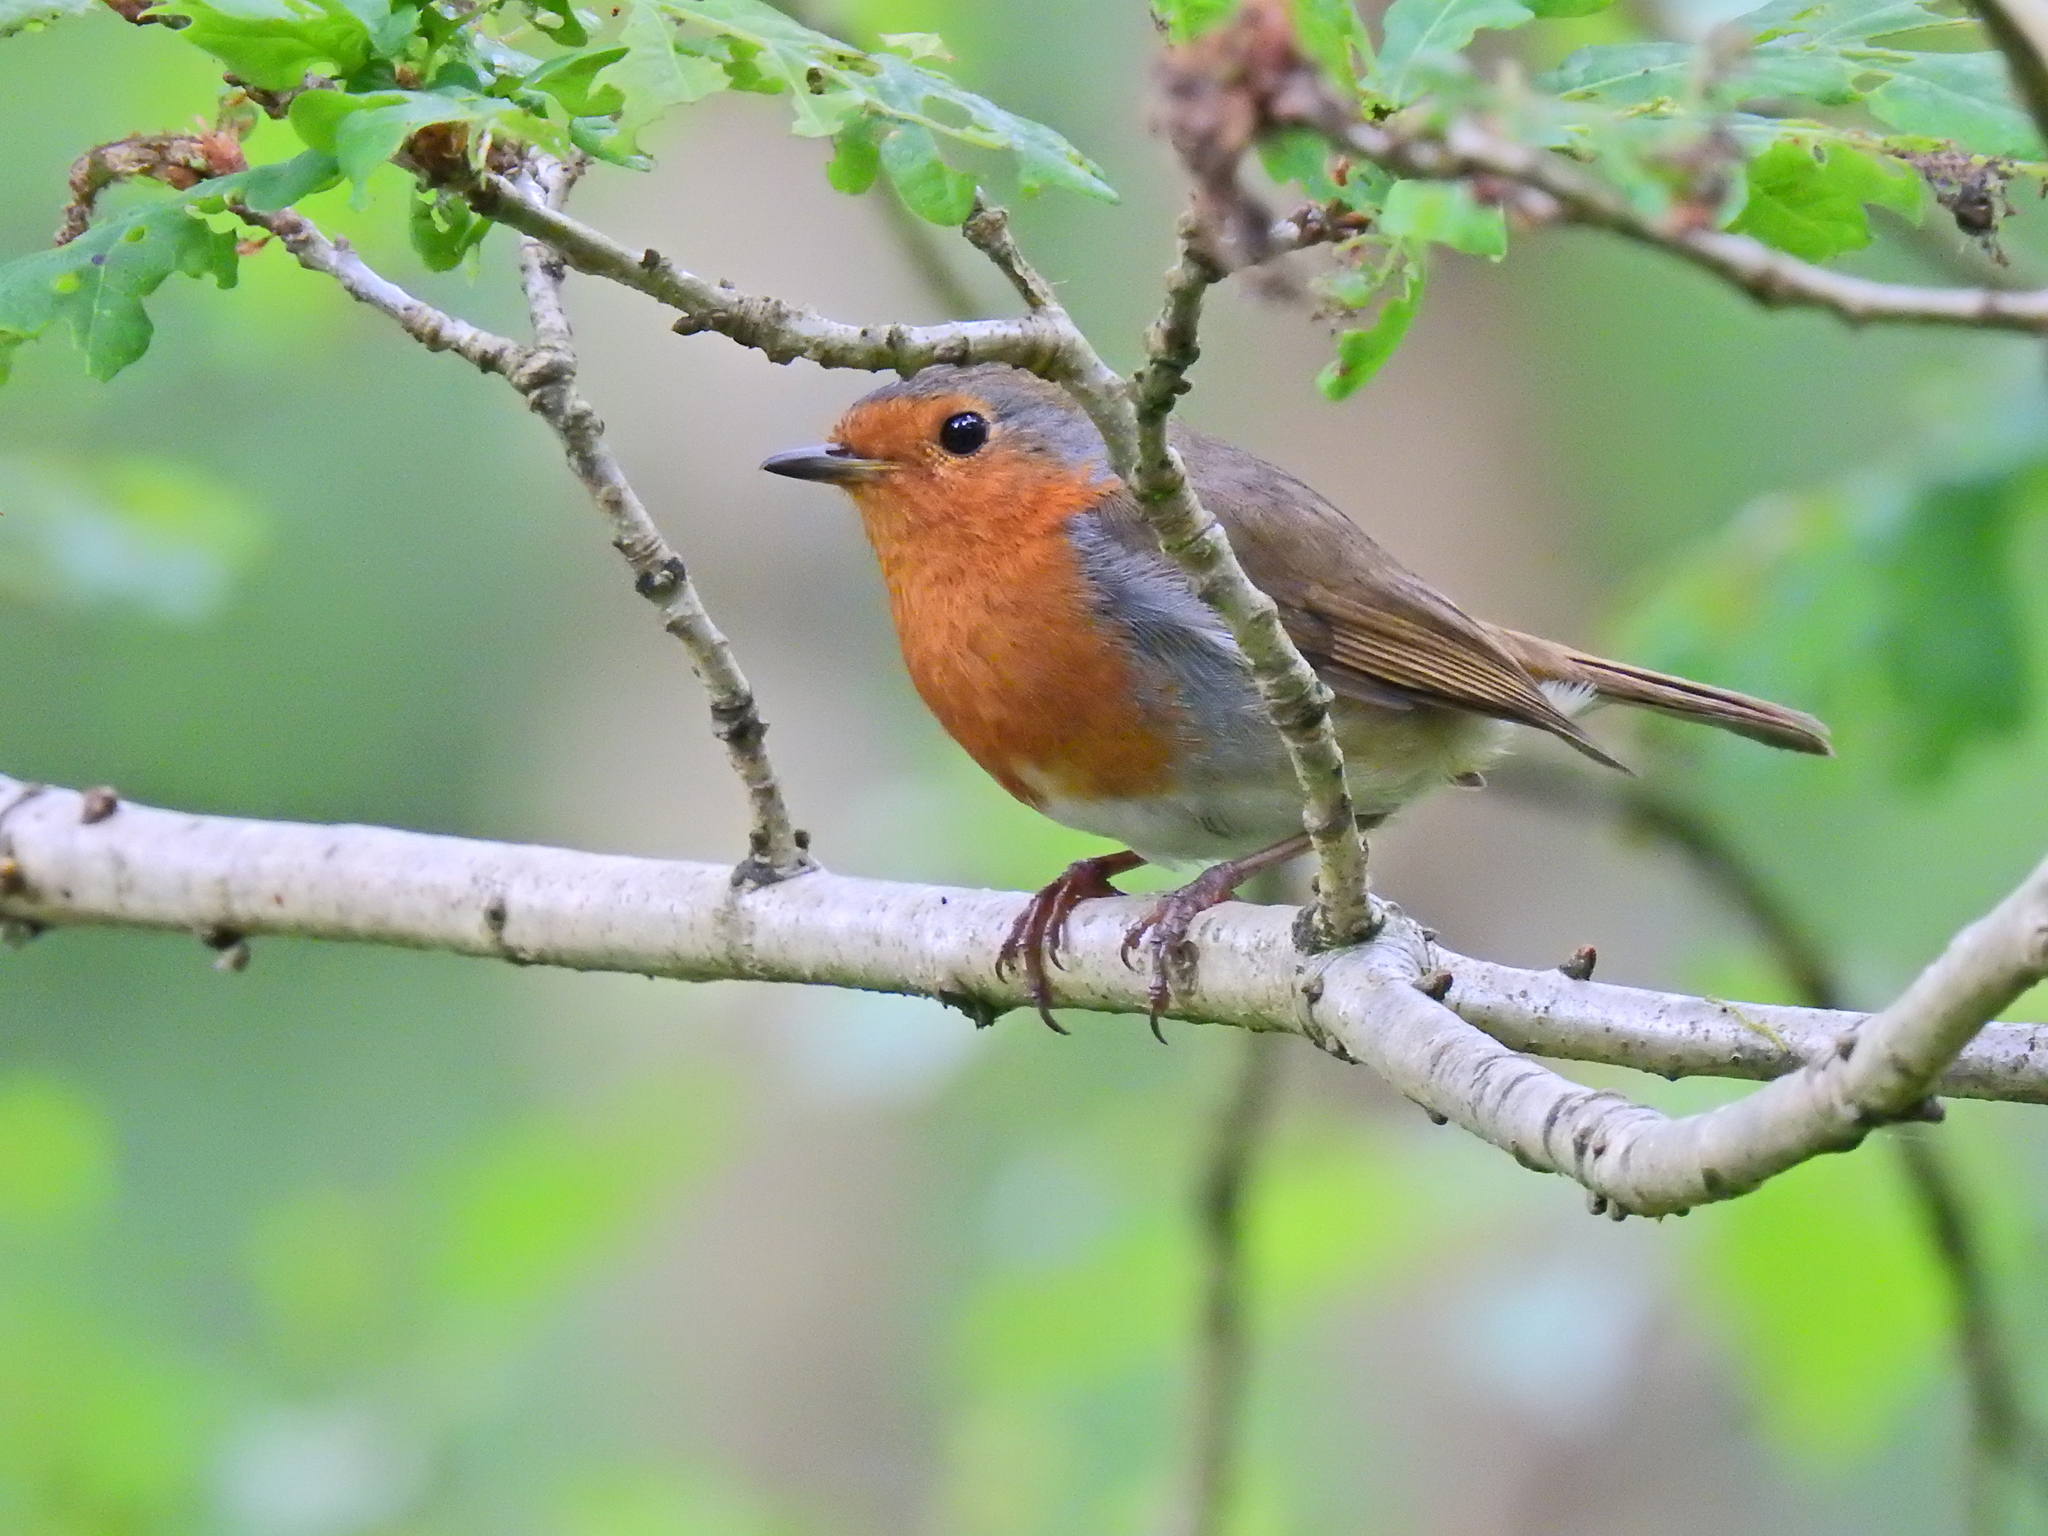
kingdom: Animalia
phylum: Chordata
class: Aves
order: Passeriformes
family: Muscicapidae
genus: Erithacus
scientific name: Erithacus rubecula
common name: European robin
